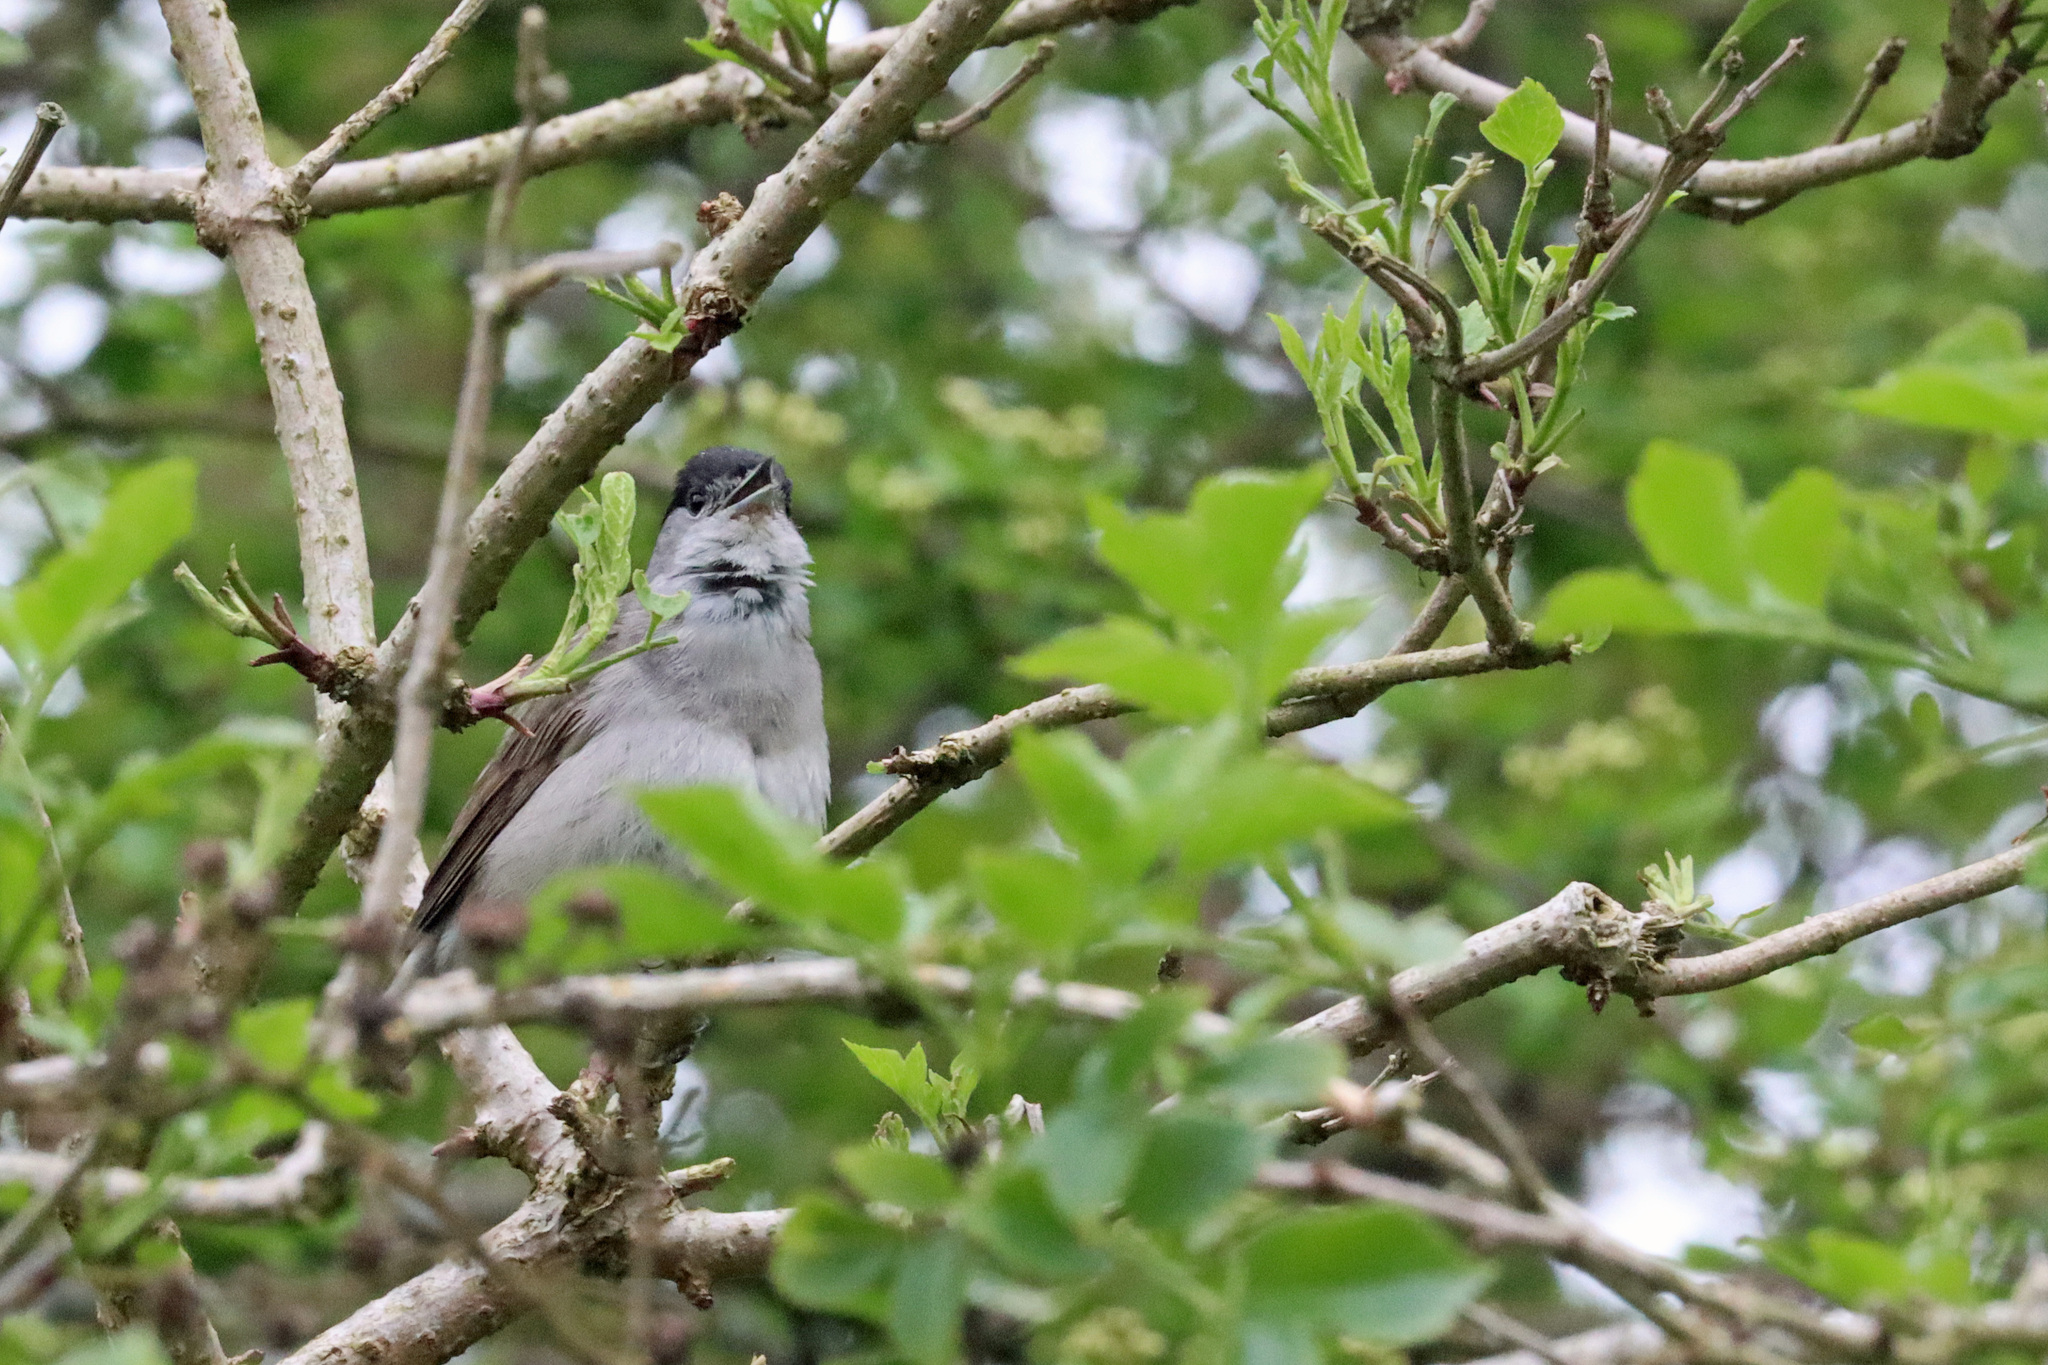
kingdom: Animalia
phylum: Chordata
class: Aves
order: Passeriformes
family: Sylviidae
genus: Sylvia
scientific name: Sylvia atricapilla
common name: Eurasian blackcap
